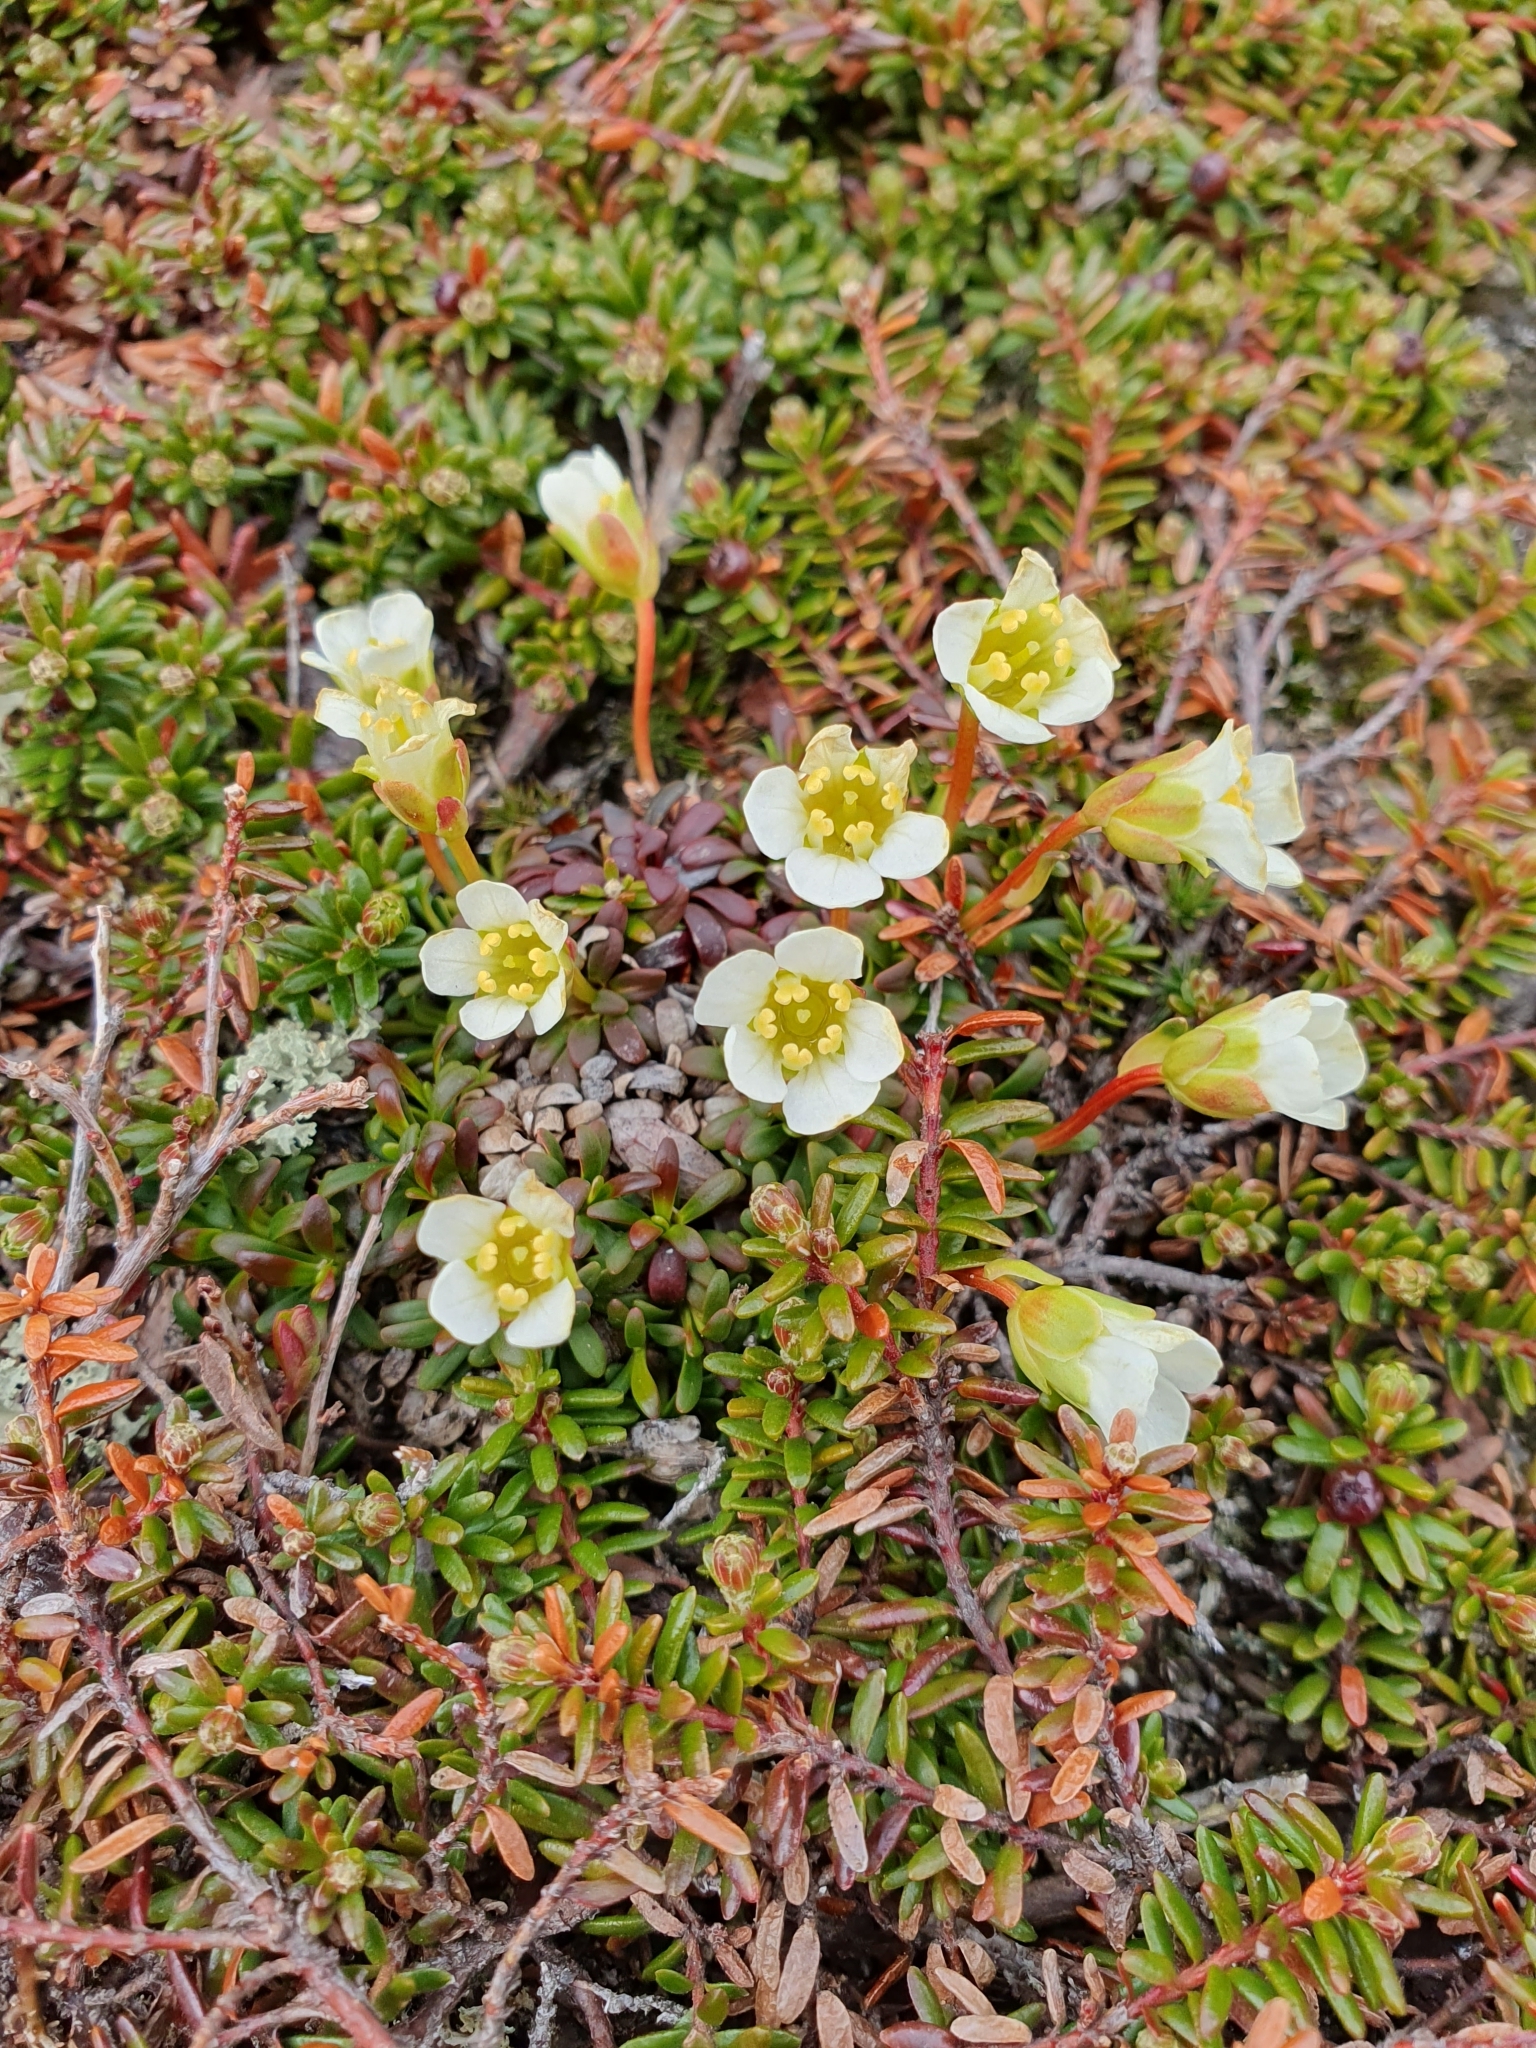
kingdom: Plantae
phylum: Tracheophyta
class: Magnoliopsida
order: Ericales
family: Diapensiaceae
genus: Diapensia
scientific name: Diapensia lapponica
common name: Diapensia
